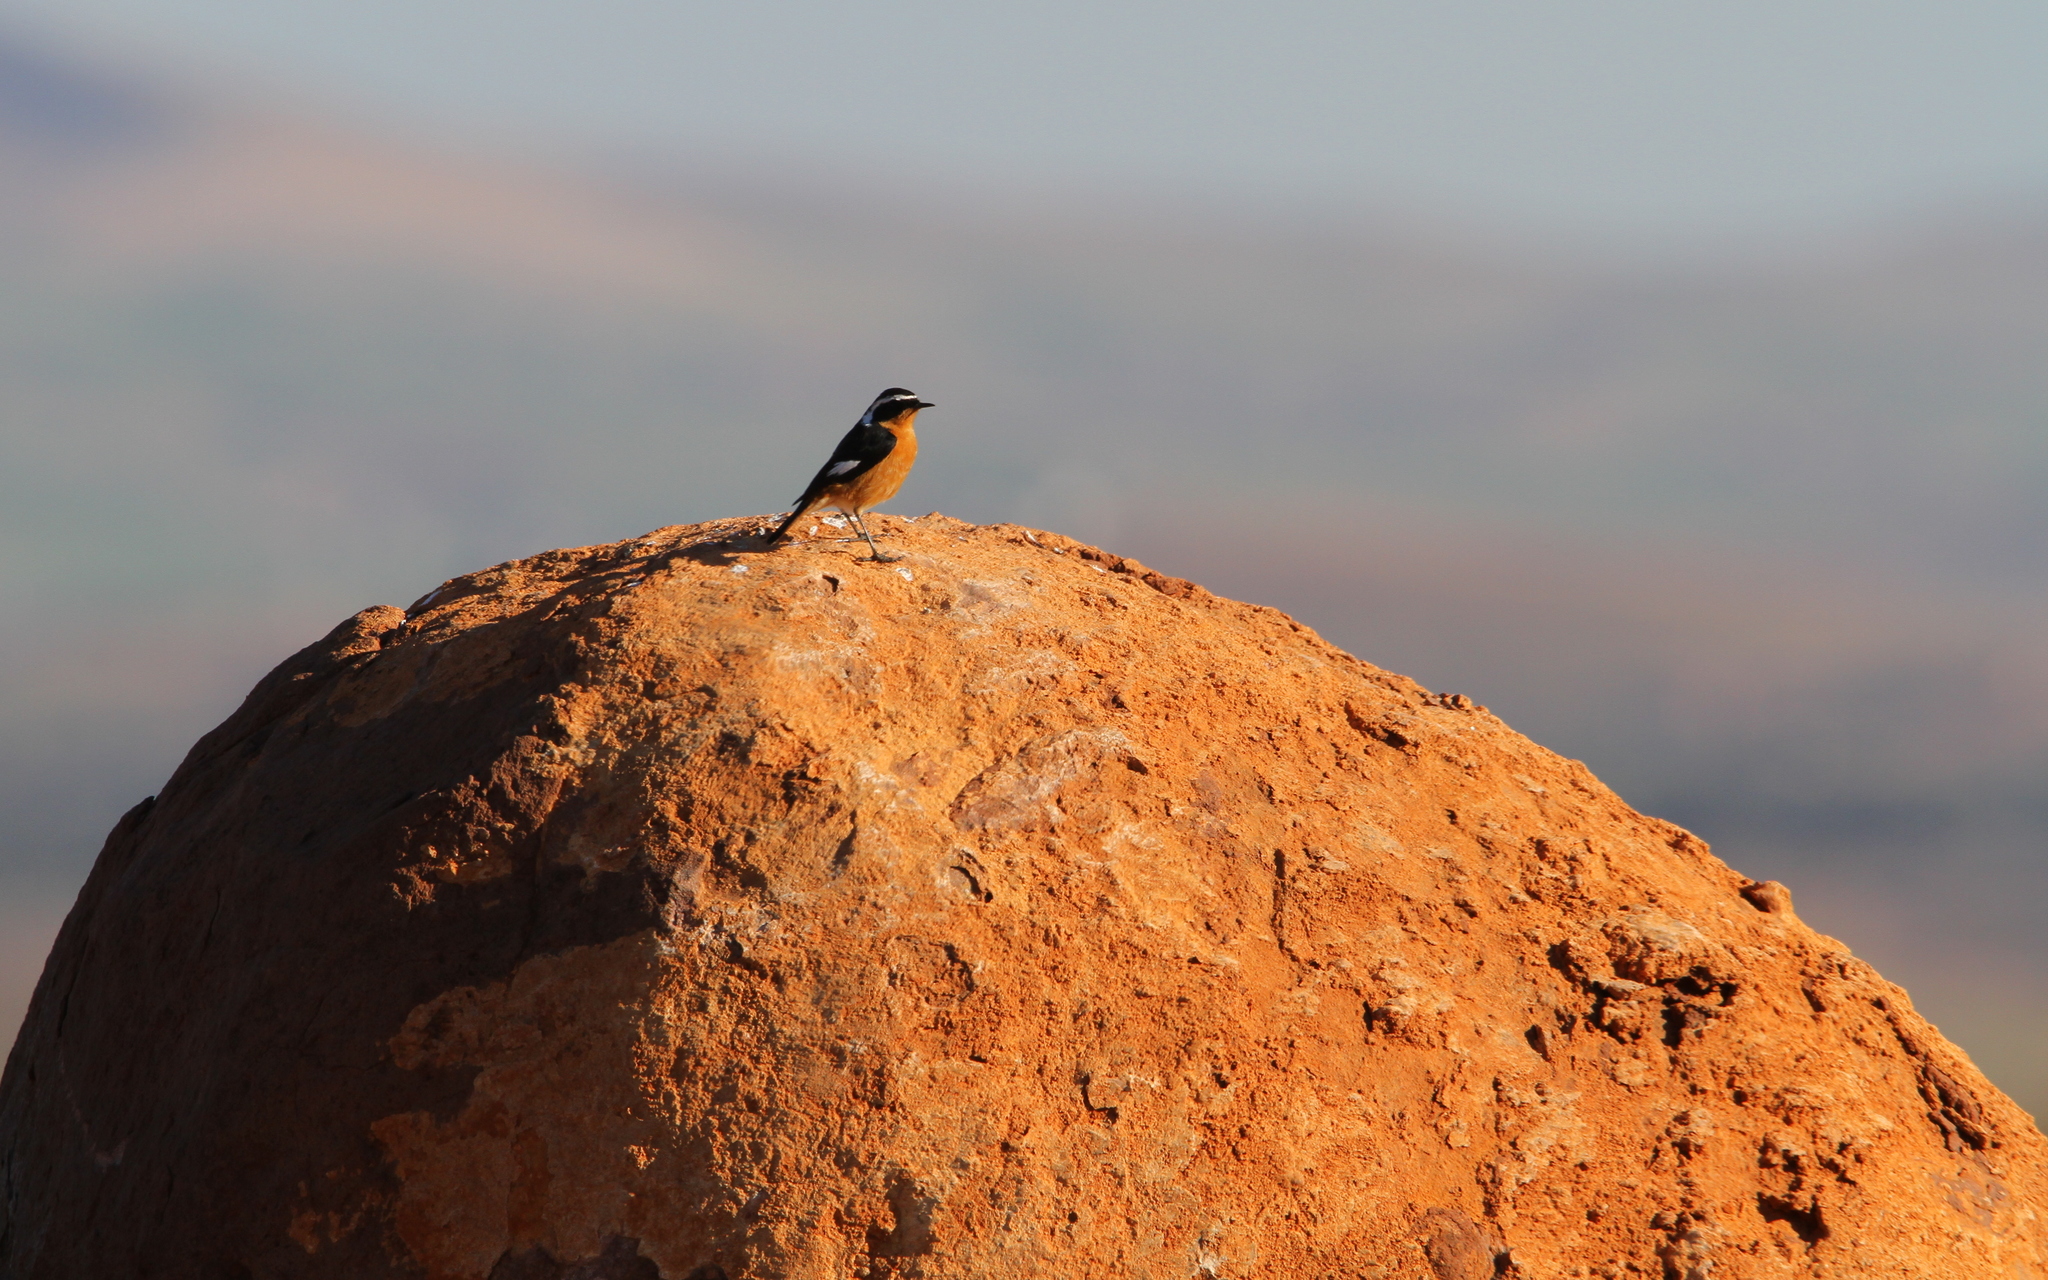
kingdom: Animalia
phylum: Chordata
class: Aves
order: Passeriformes
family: Muscicapidae
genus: Phoenicurus
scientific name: Phoenicurus moussieri
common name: Moussier's redstart
